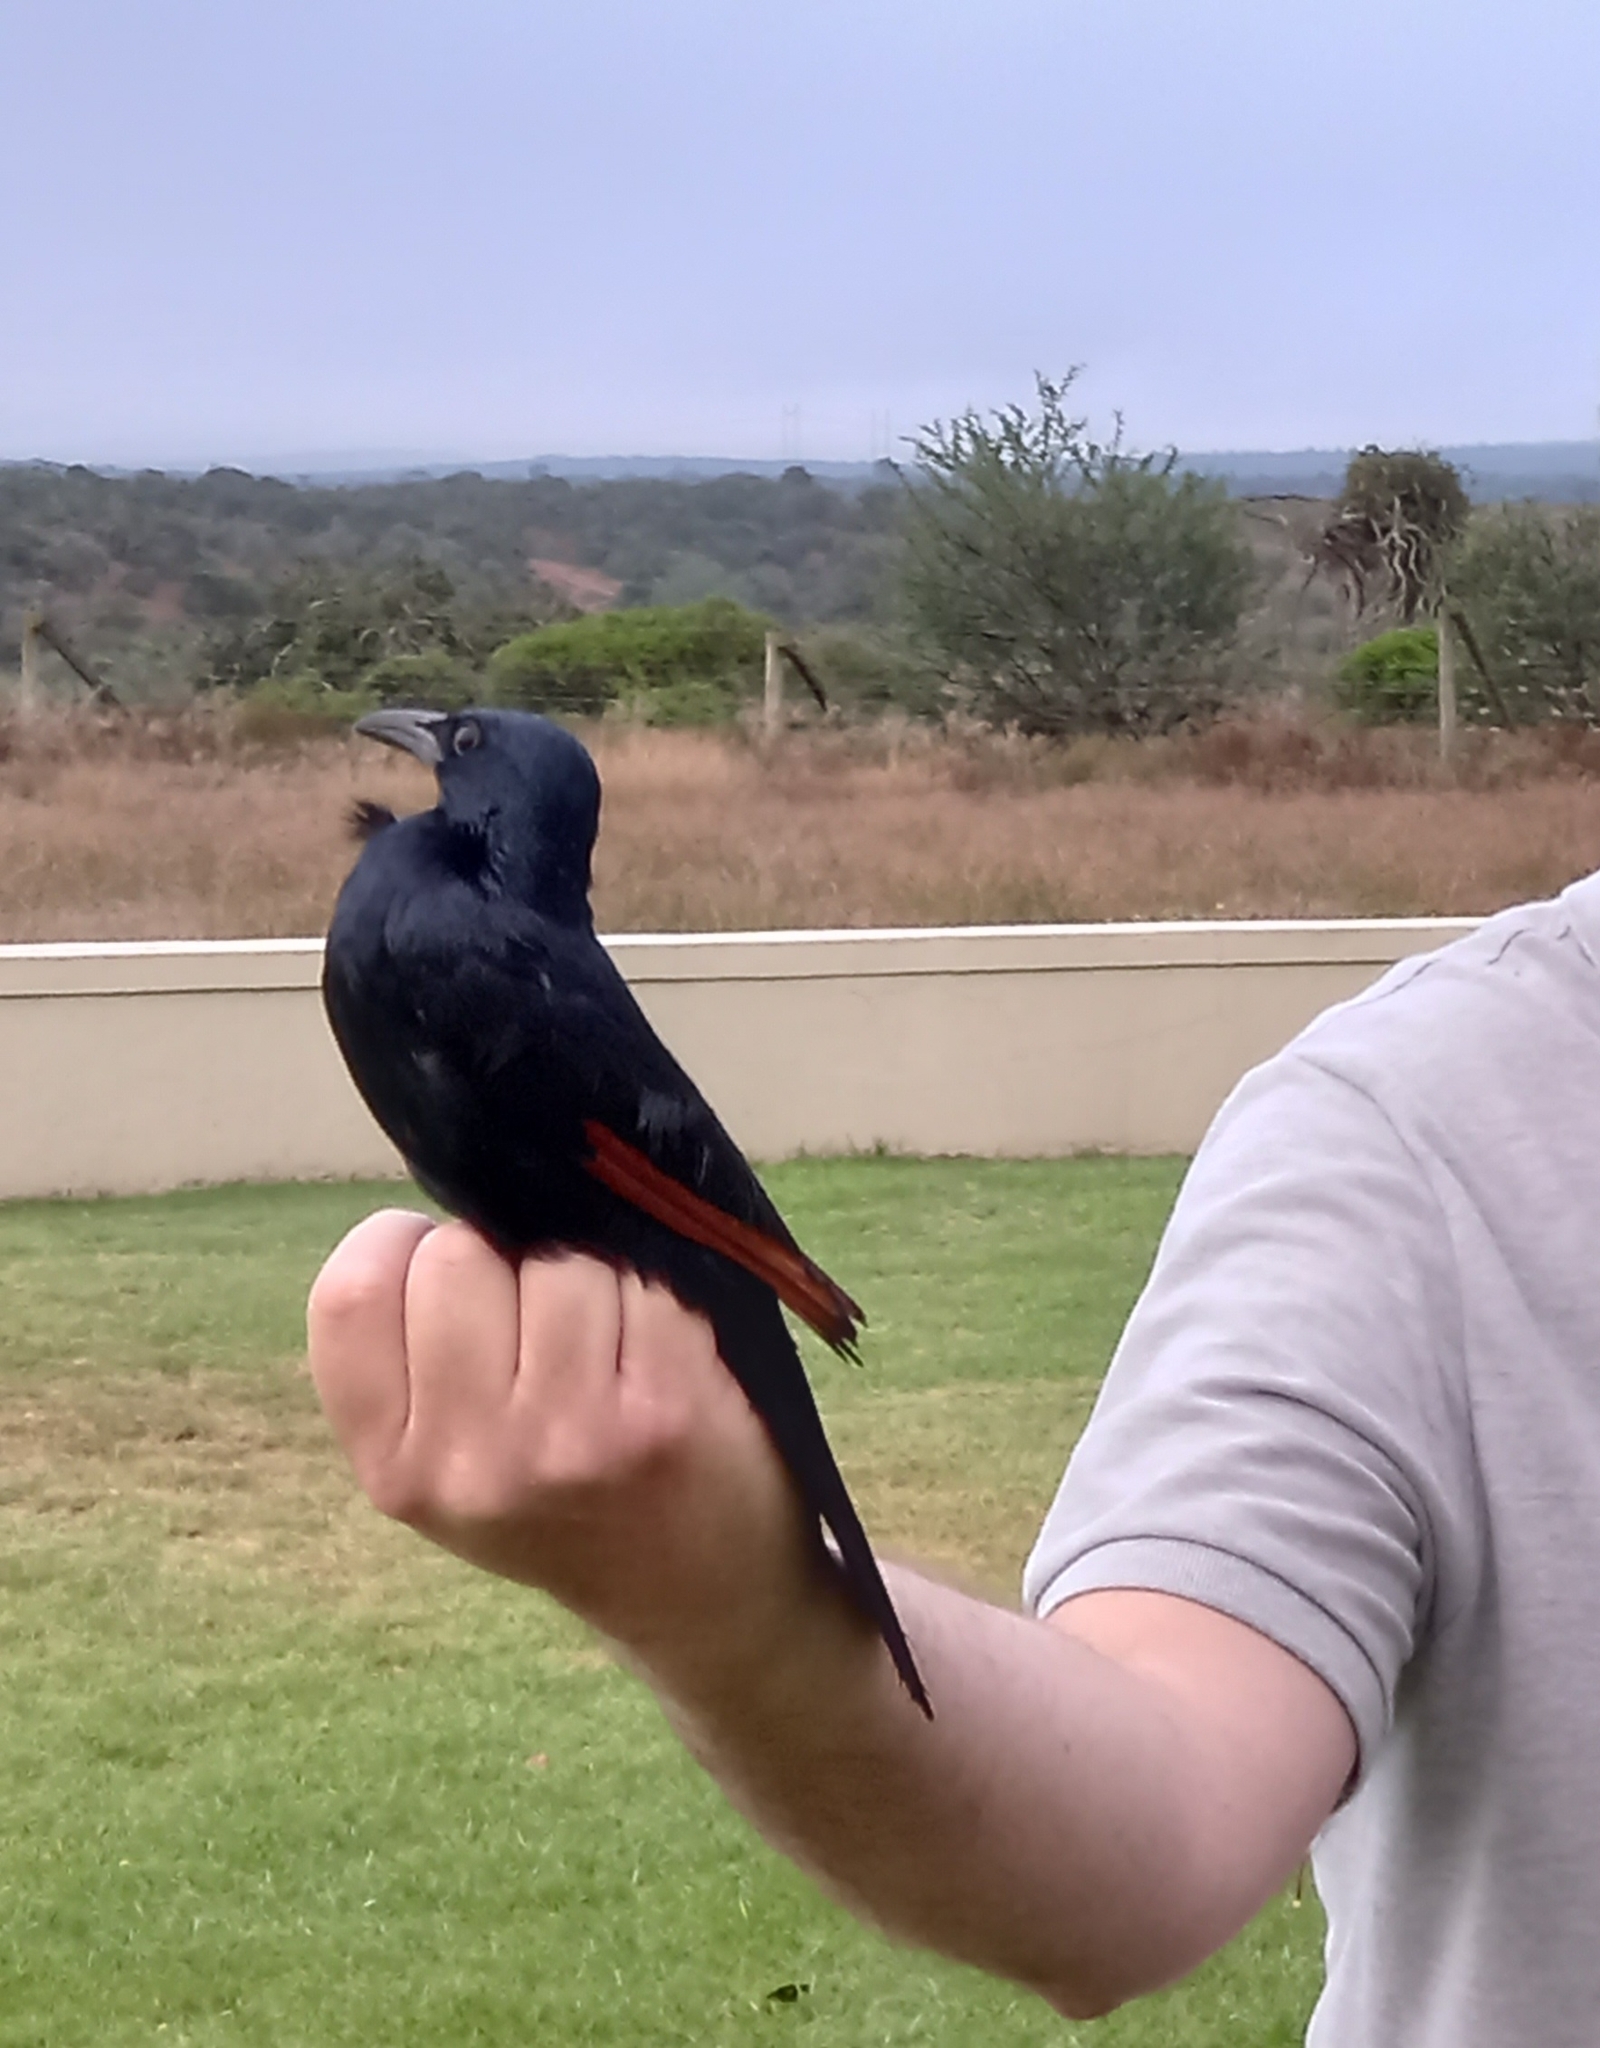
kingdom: Animalia
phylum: Chordata
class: Aves
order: Passeriformes
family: Sturnidae
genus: Onychognathus
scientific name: Onychognathus morio
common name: Red-winged starling
